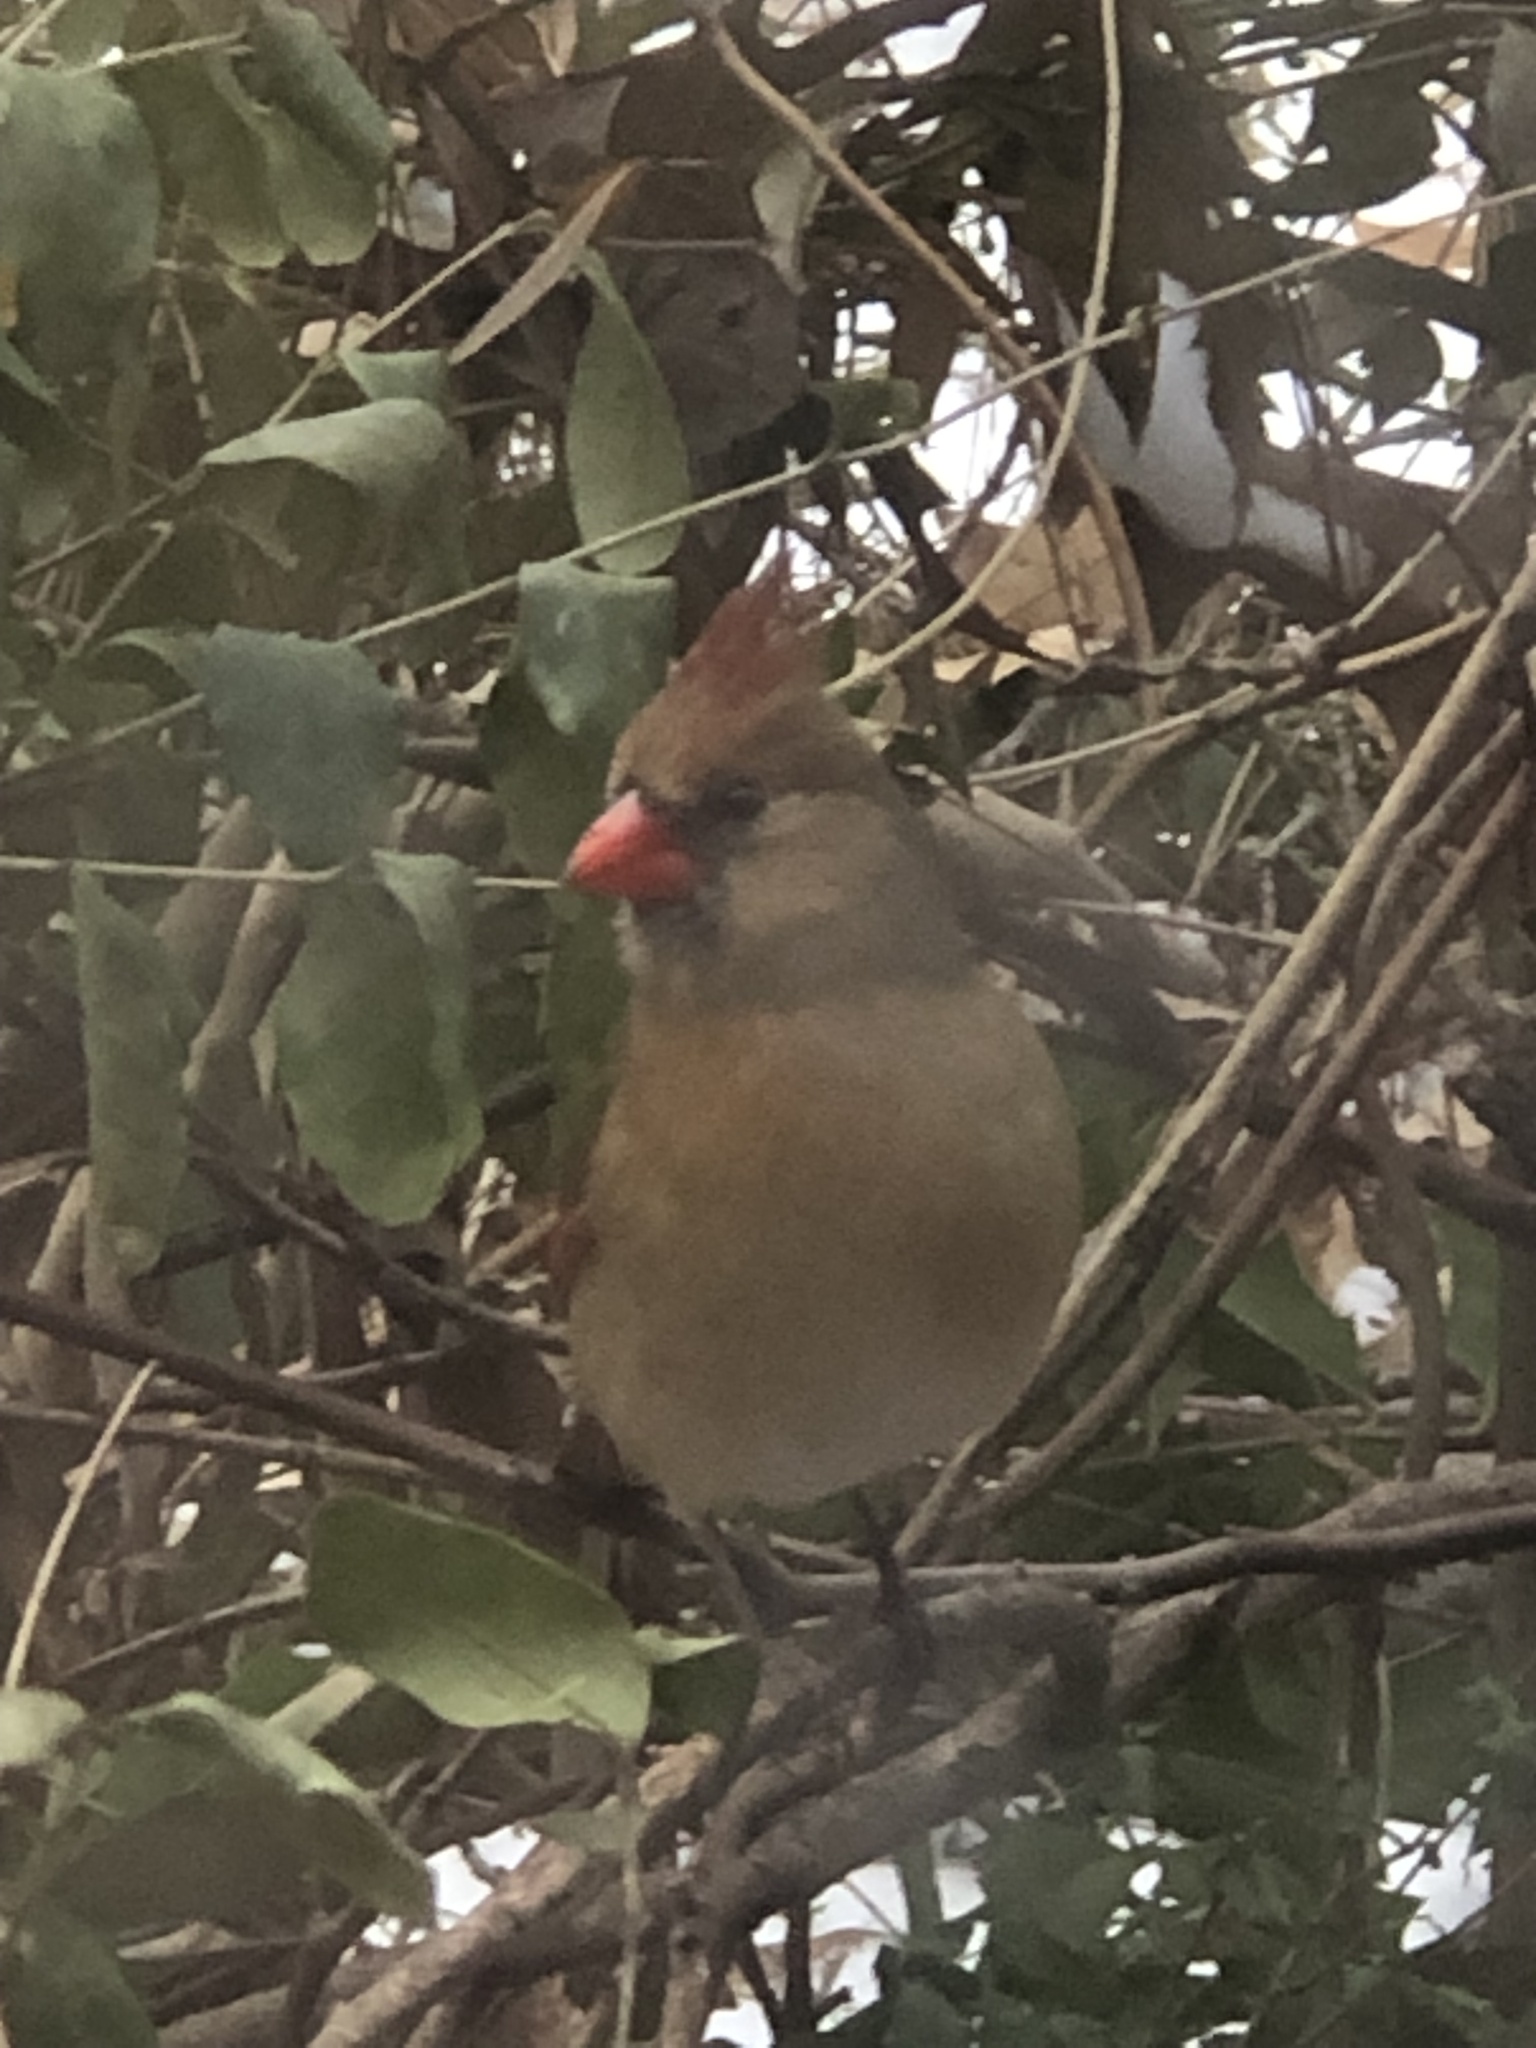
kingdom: Animalia
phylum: Chordata
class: Aves
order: Passeriformes
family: Cardinalidae
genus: Cardinalis
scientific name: Cardinalis cardinalis
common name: Northern cardinal
